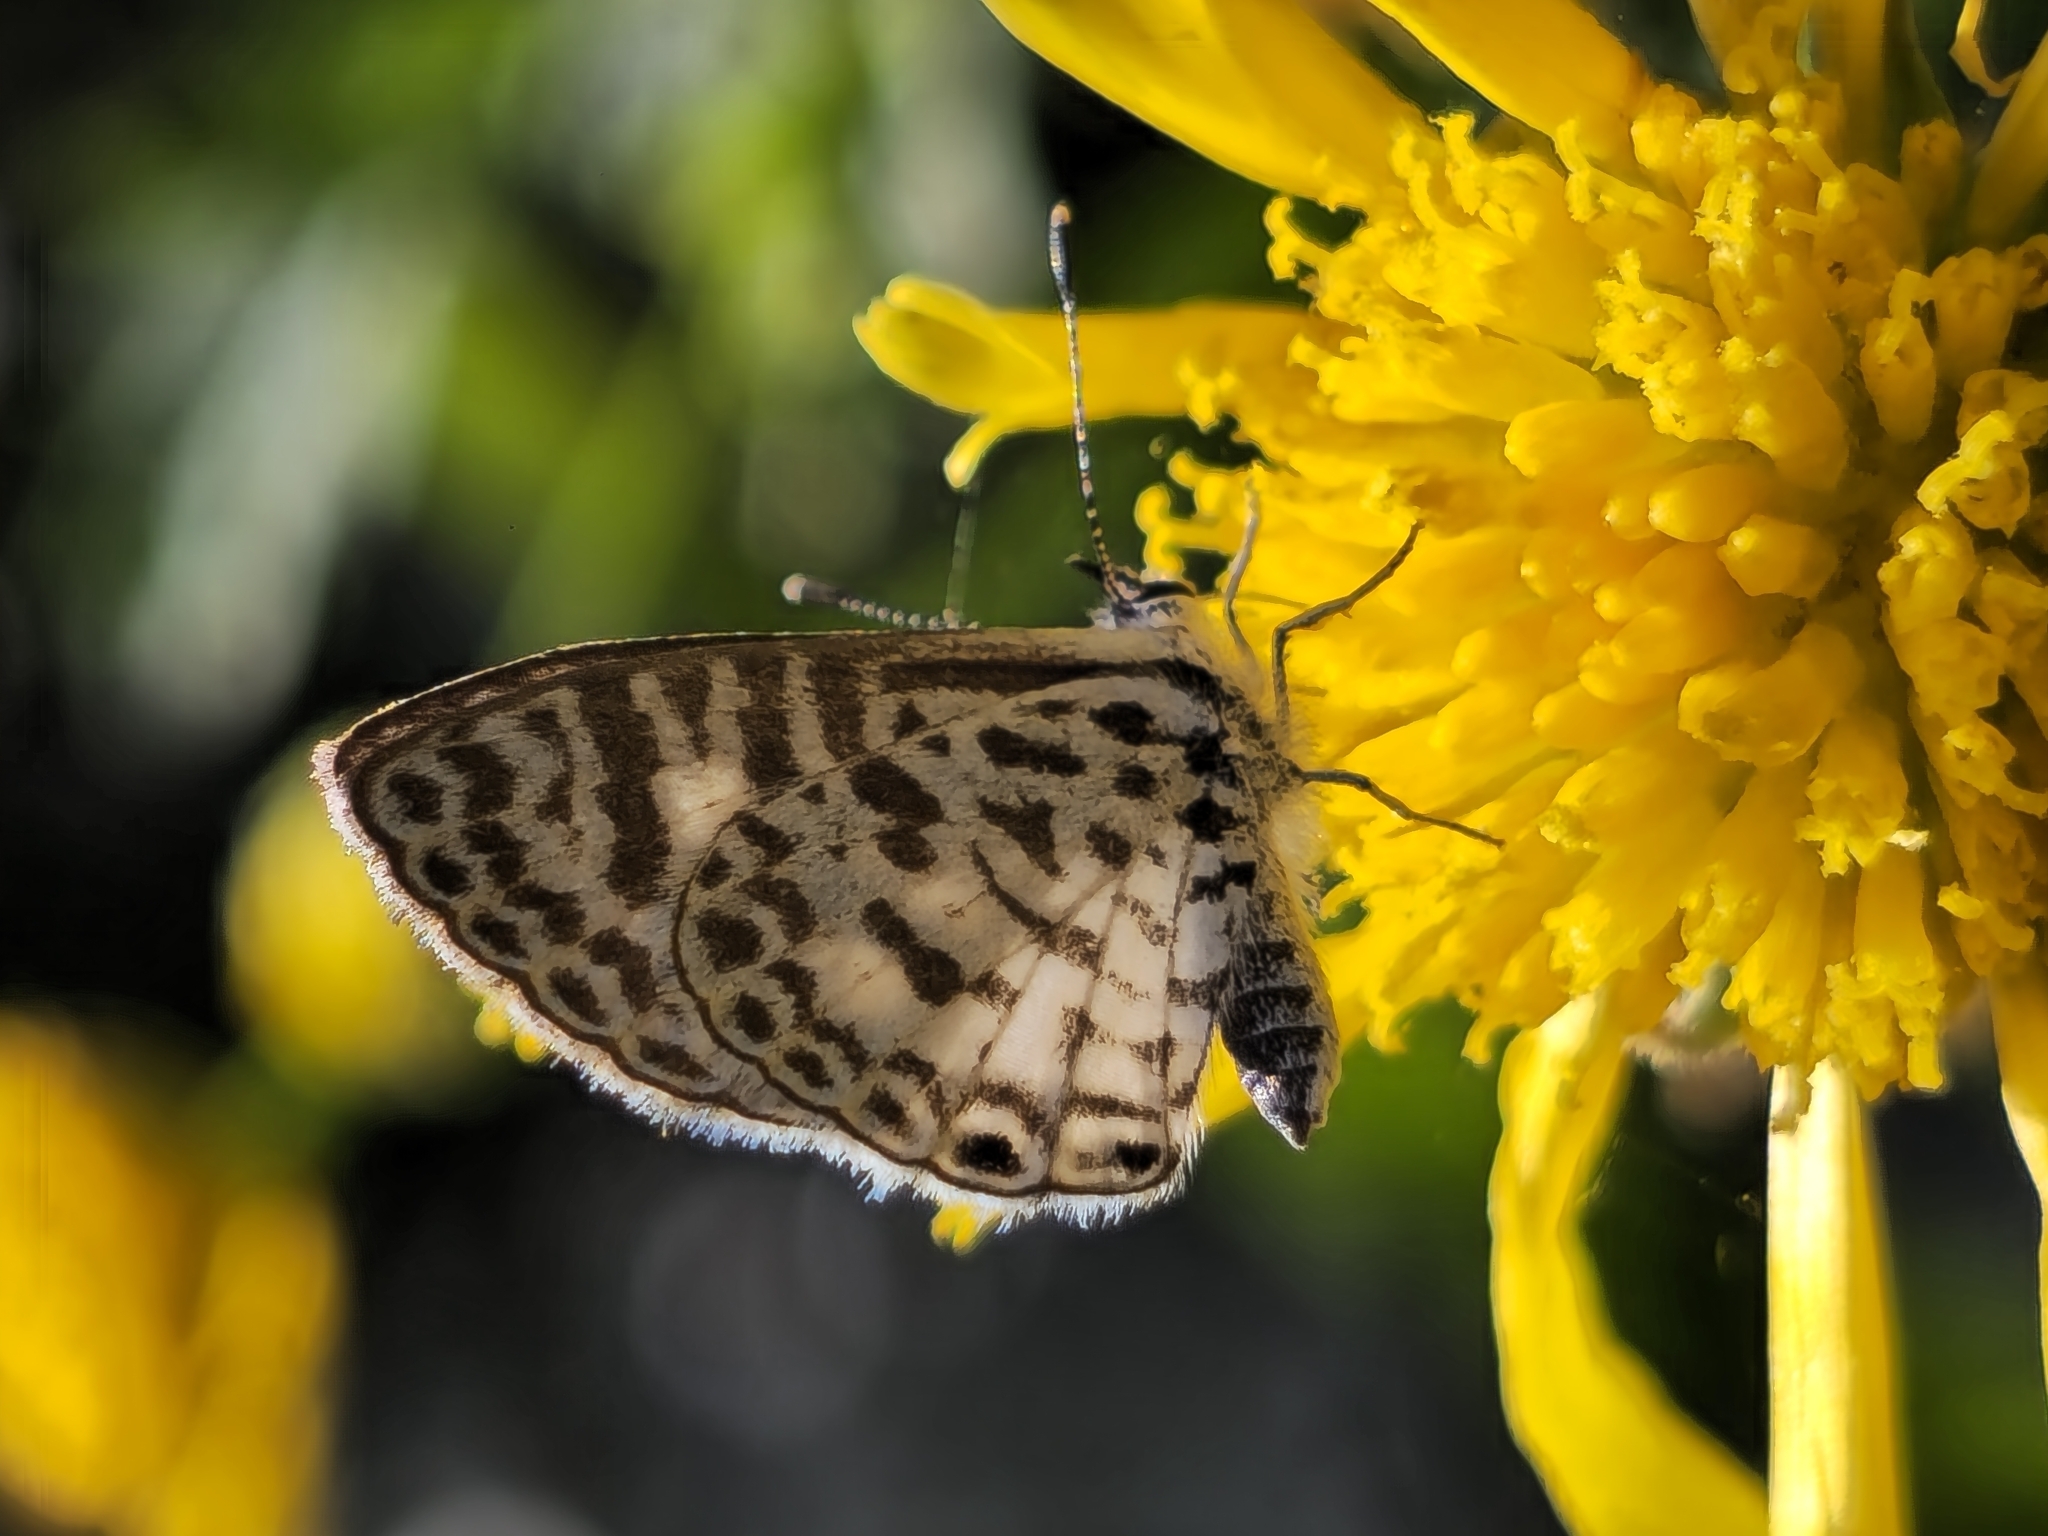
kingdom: Animalia
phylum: Arthropoda
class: Insecta
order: Lepidoptera
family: Lycaenidae
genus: Leptotes
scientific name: Leptotes cassius
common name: Cassius blue
